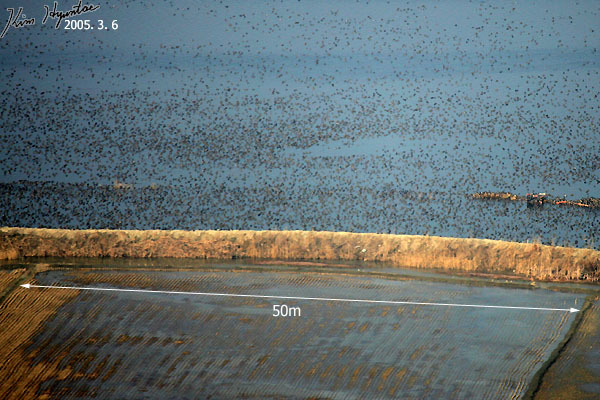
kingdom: Animalia
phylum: Chordata
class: Aves
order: Anseriformes
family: Anatidae
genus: Sibirionetta
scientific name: Sibirionetta formosa
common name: Baikal teal
